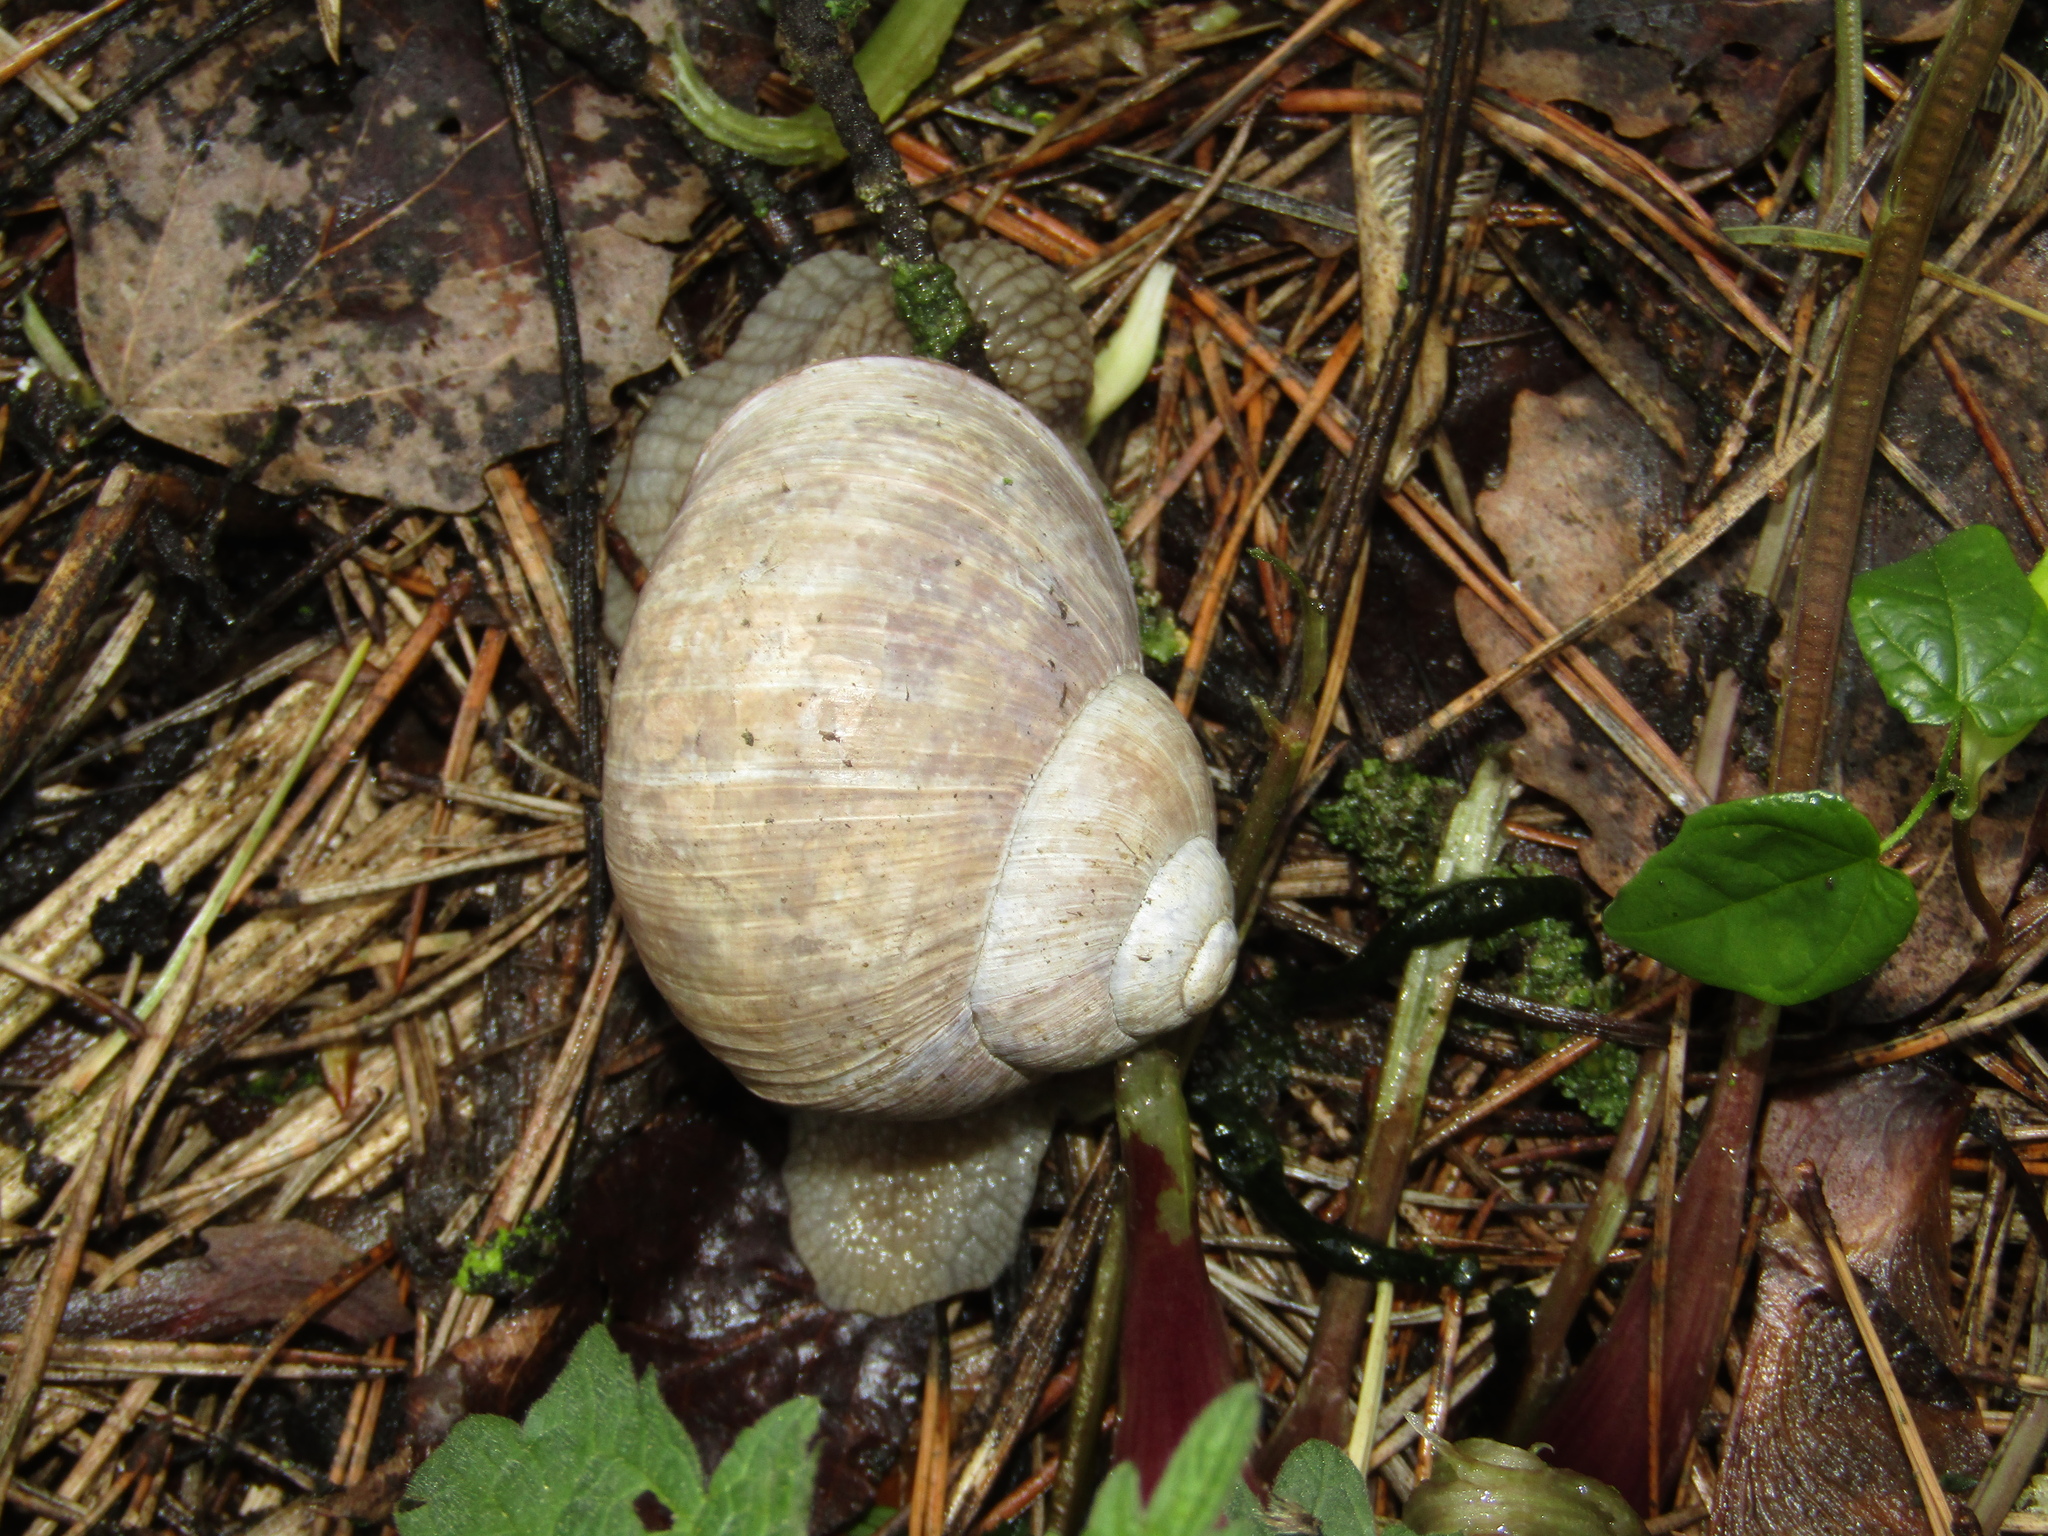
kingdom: Animalia
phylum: Mollusca
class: Gastropoda
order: Stylommatophora
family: Helicidae
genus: Helix
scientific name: Helix pomatia
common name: Roman snail
